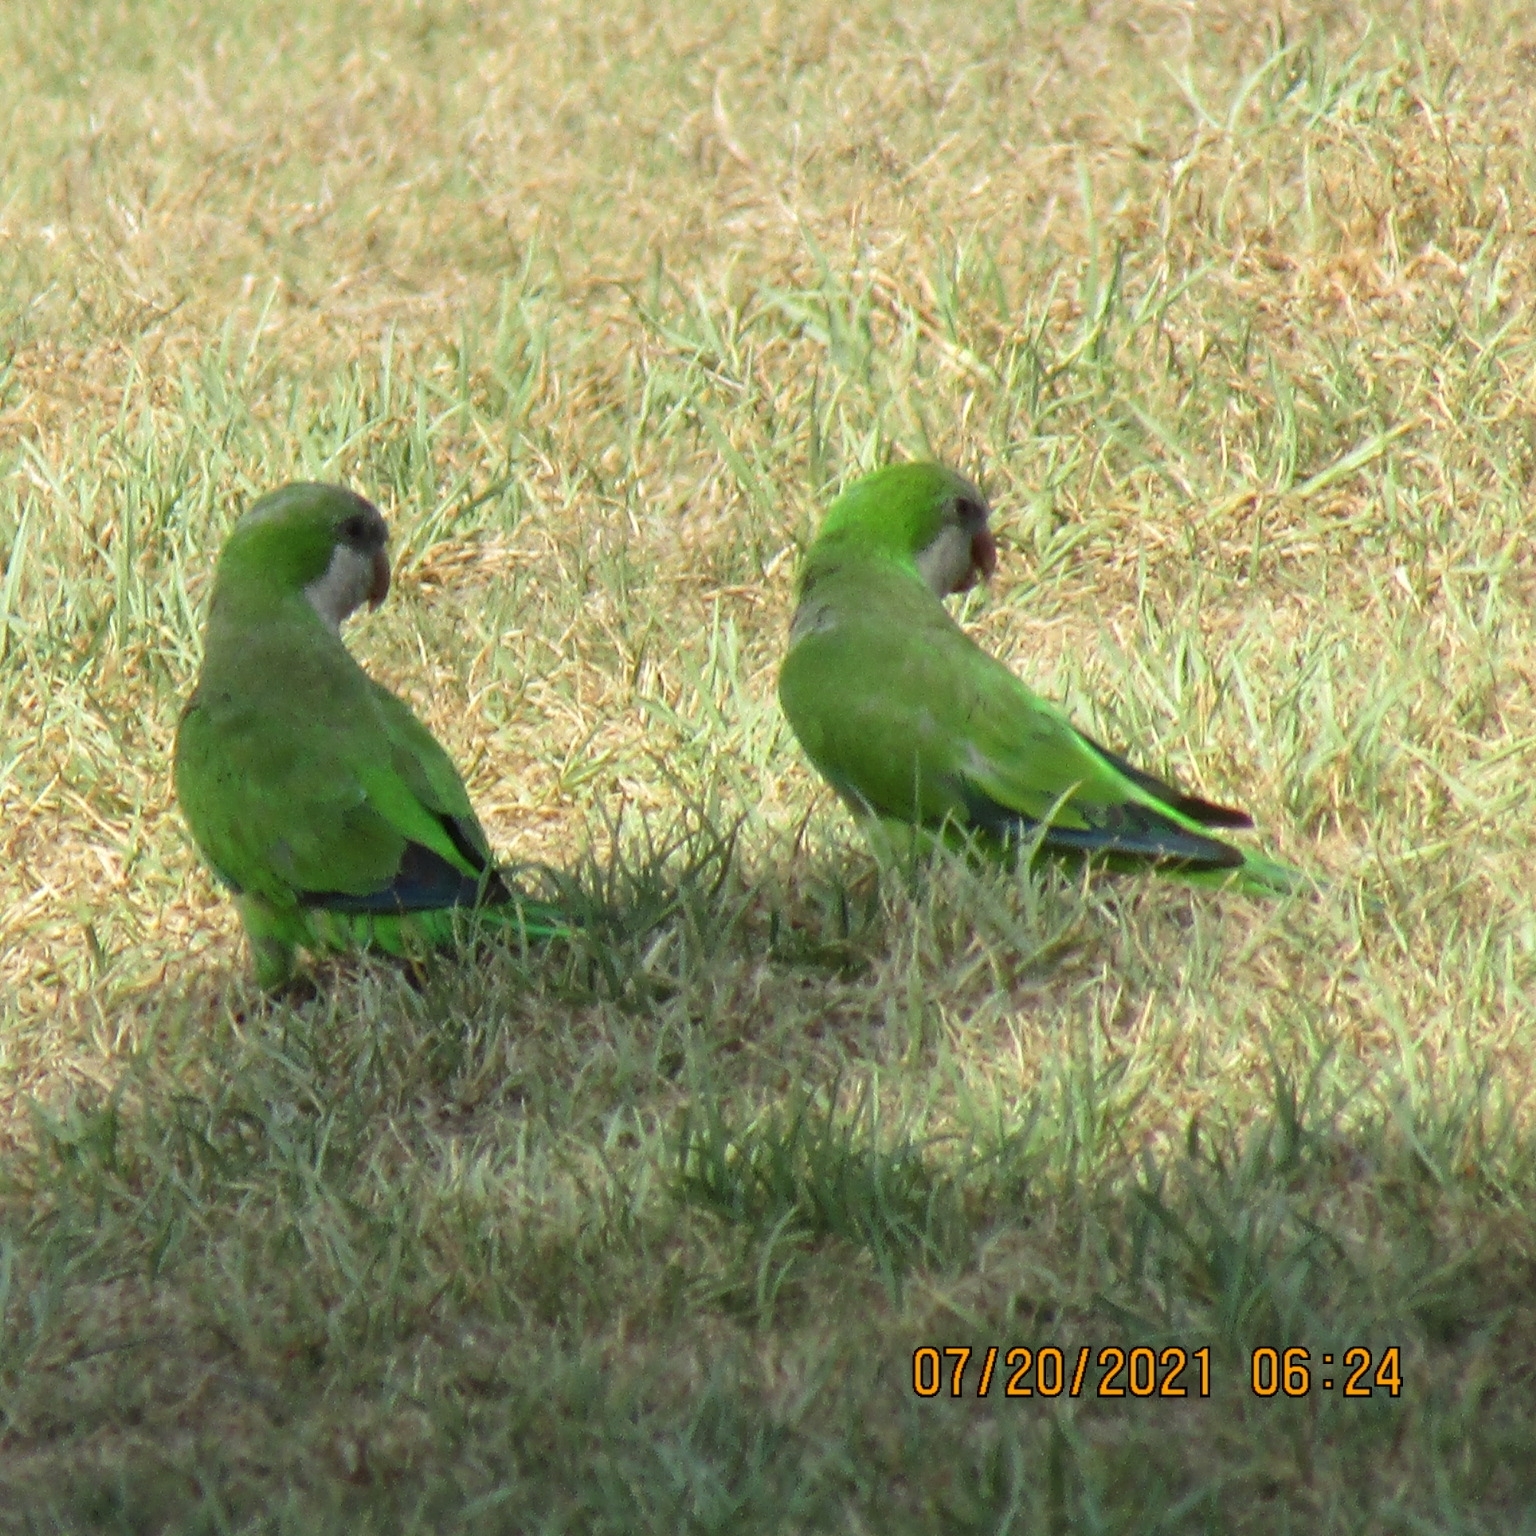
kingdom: Animalia
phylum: Chordata
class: Aves
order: Psittaciformes
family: Psittacidae
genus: Myiopsitta
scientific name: Myiopsitta monachus
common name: Monk parakeet
